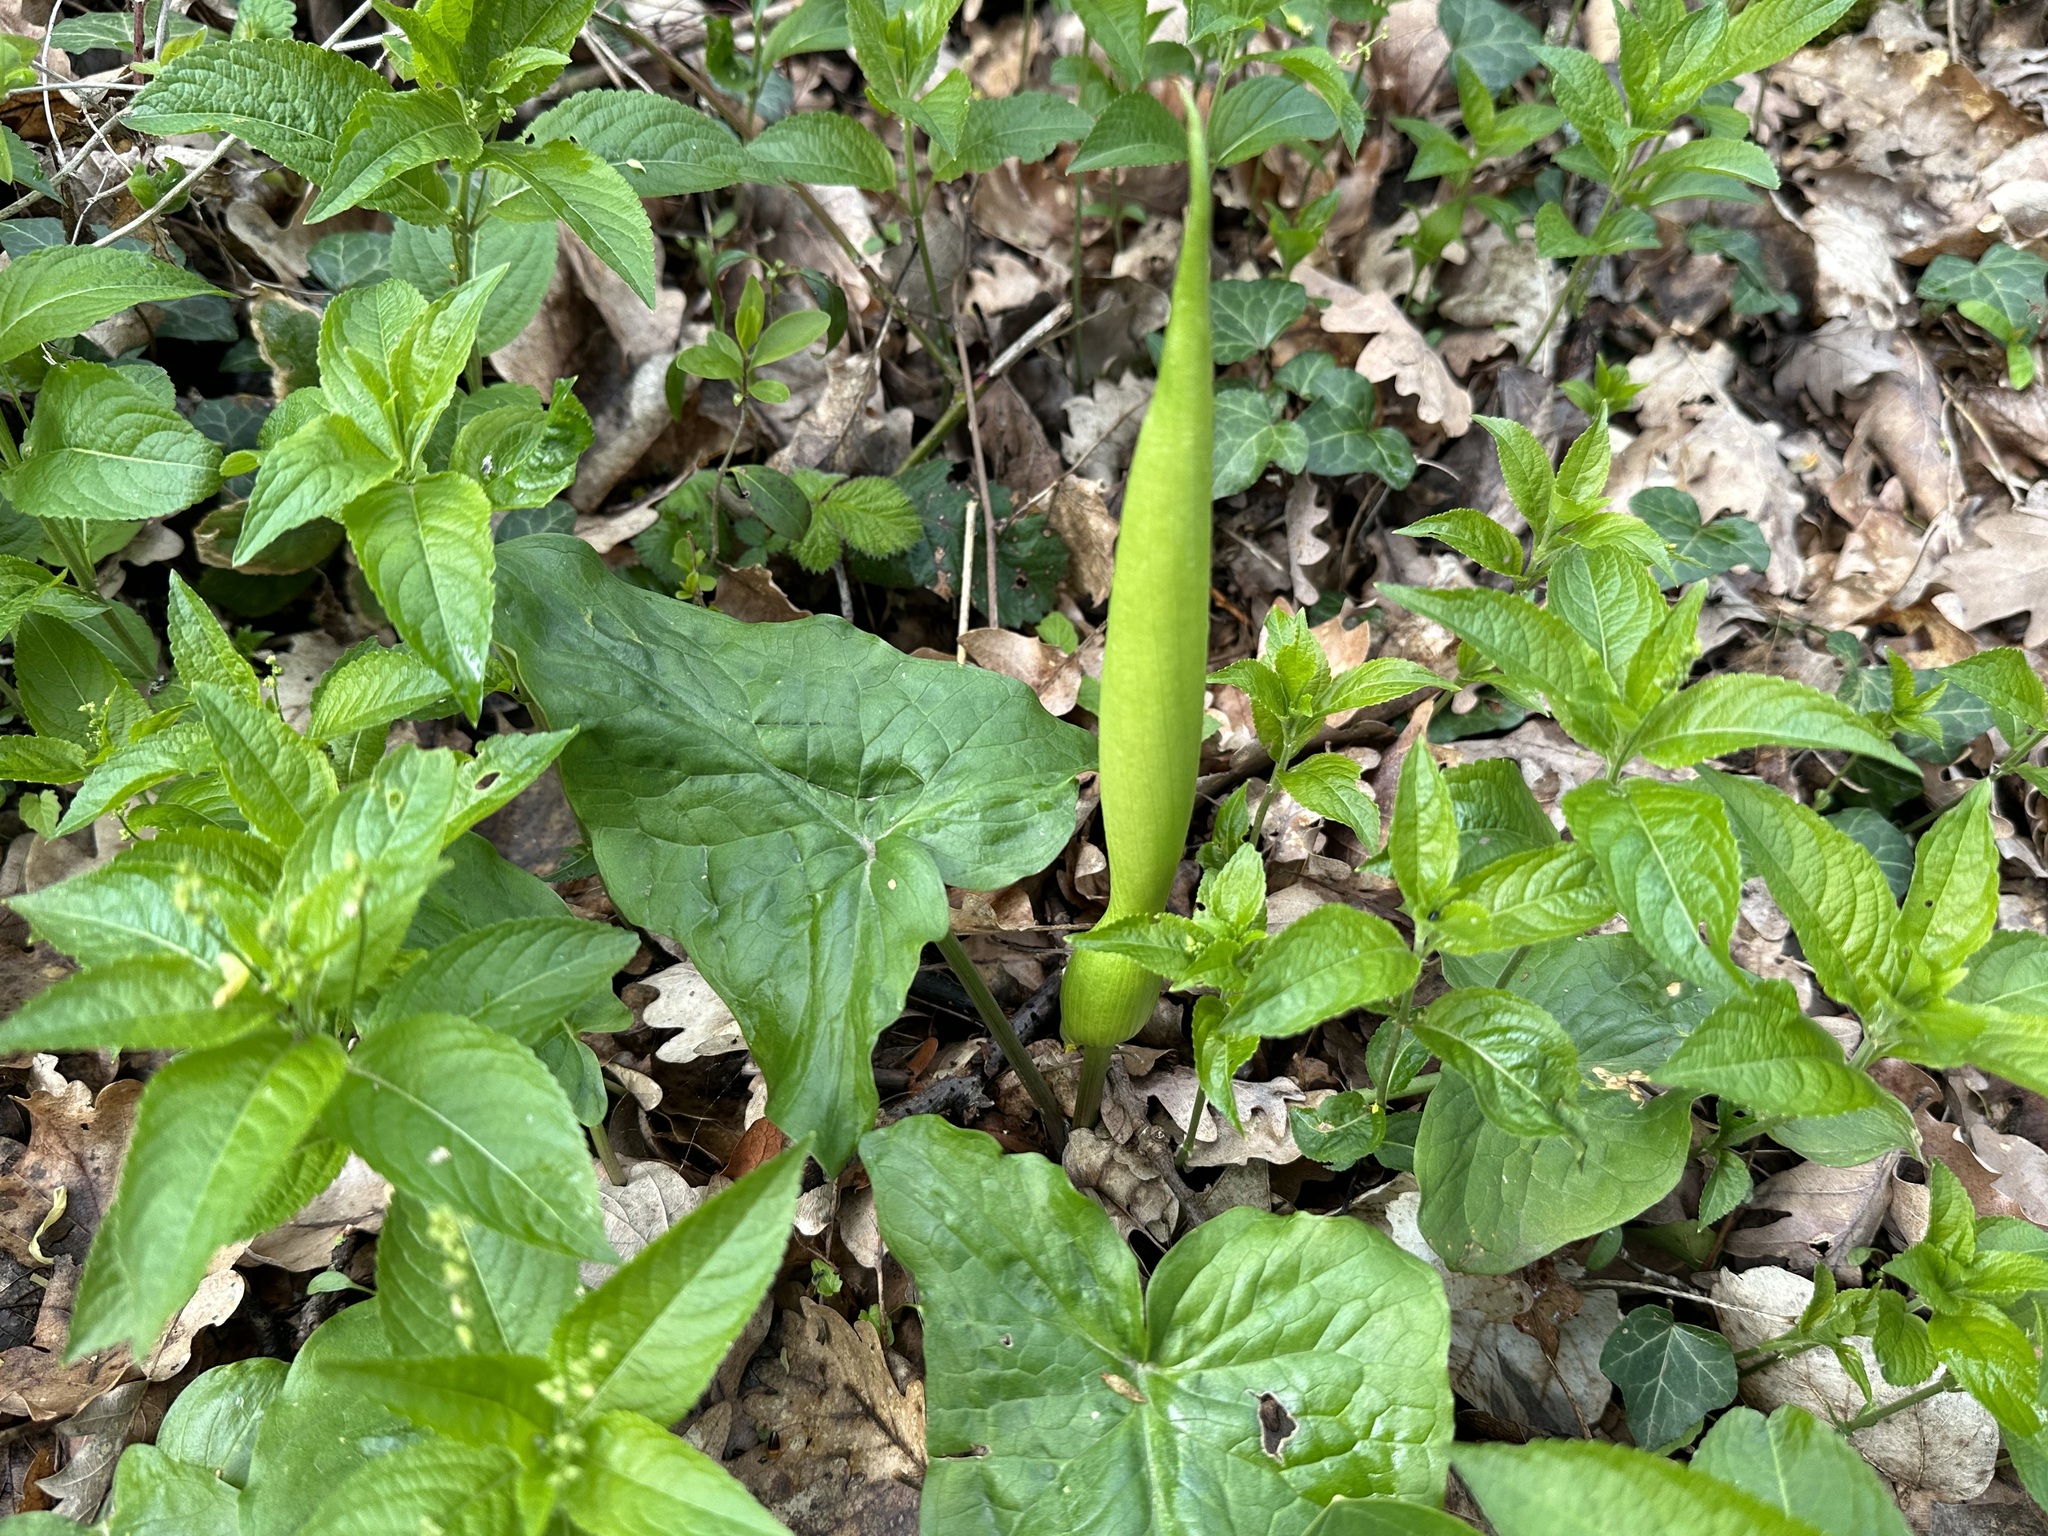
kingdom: Plantae
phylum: Tracheophyta
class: Liliopsida
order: Alismatales
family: Araceae
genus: Arum
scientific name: Arum maculatum
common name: Lords-and-ladies
